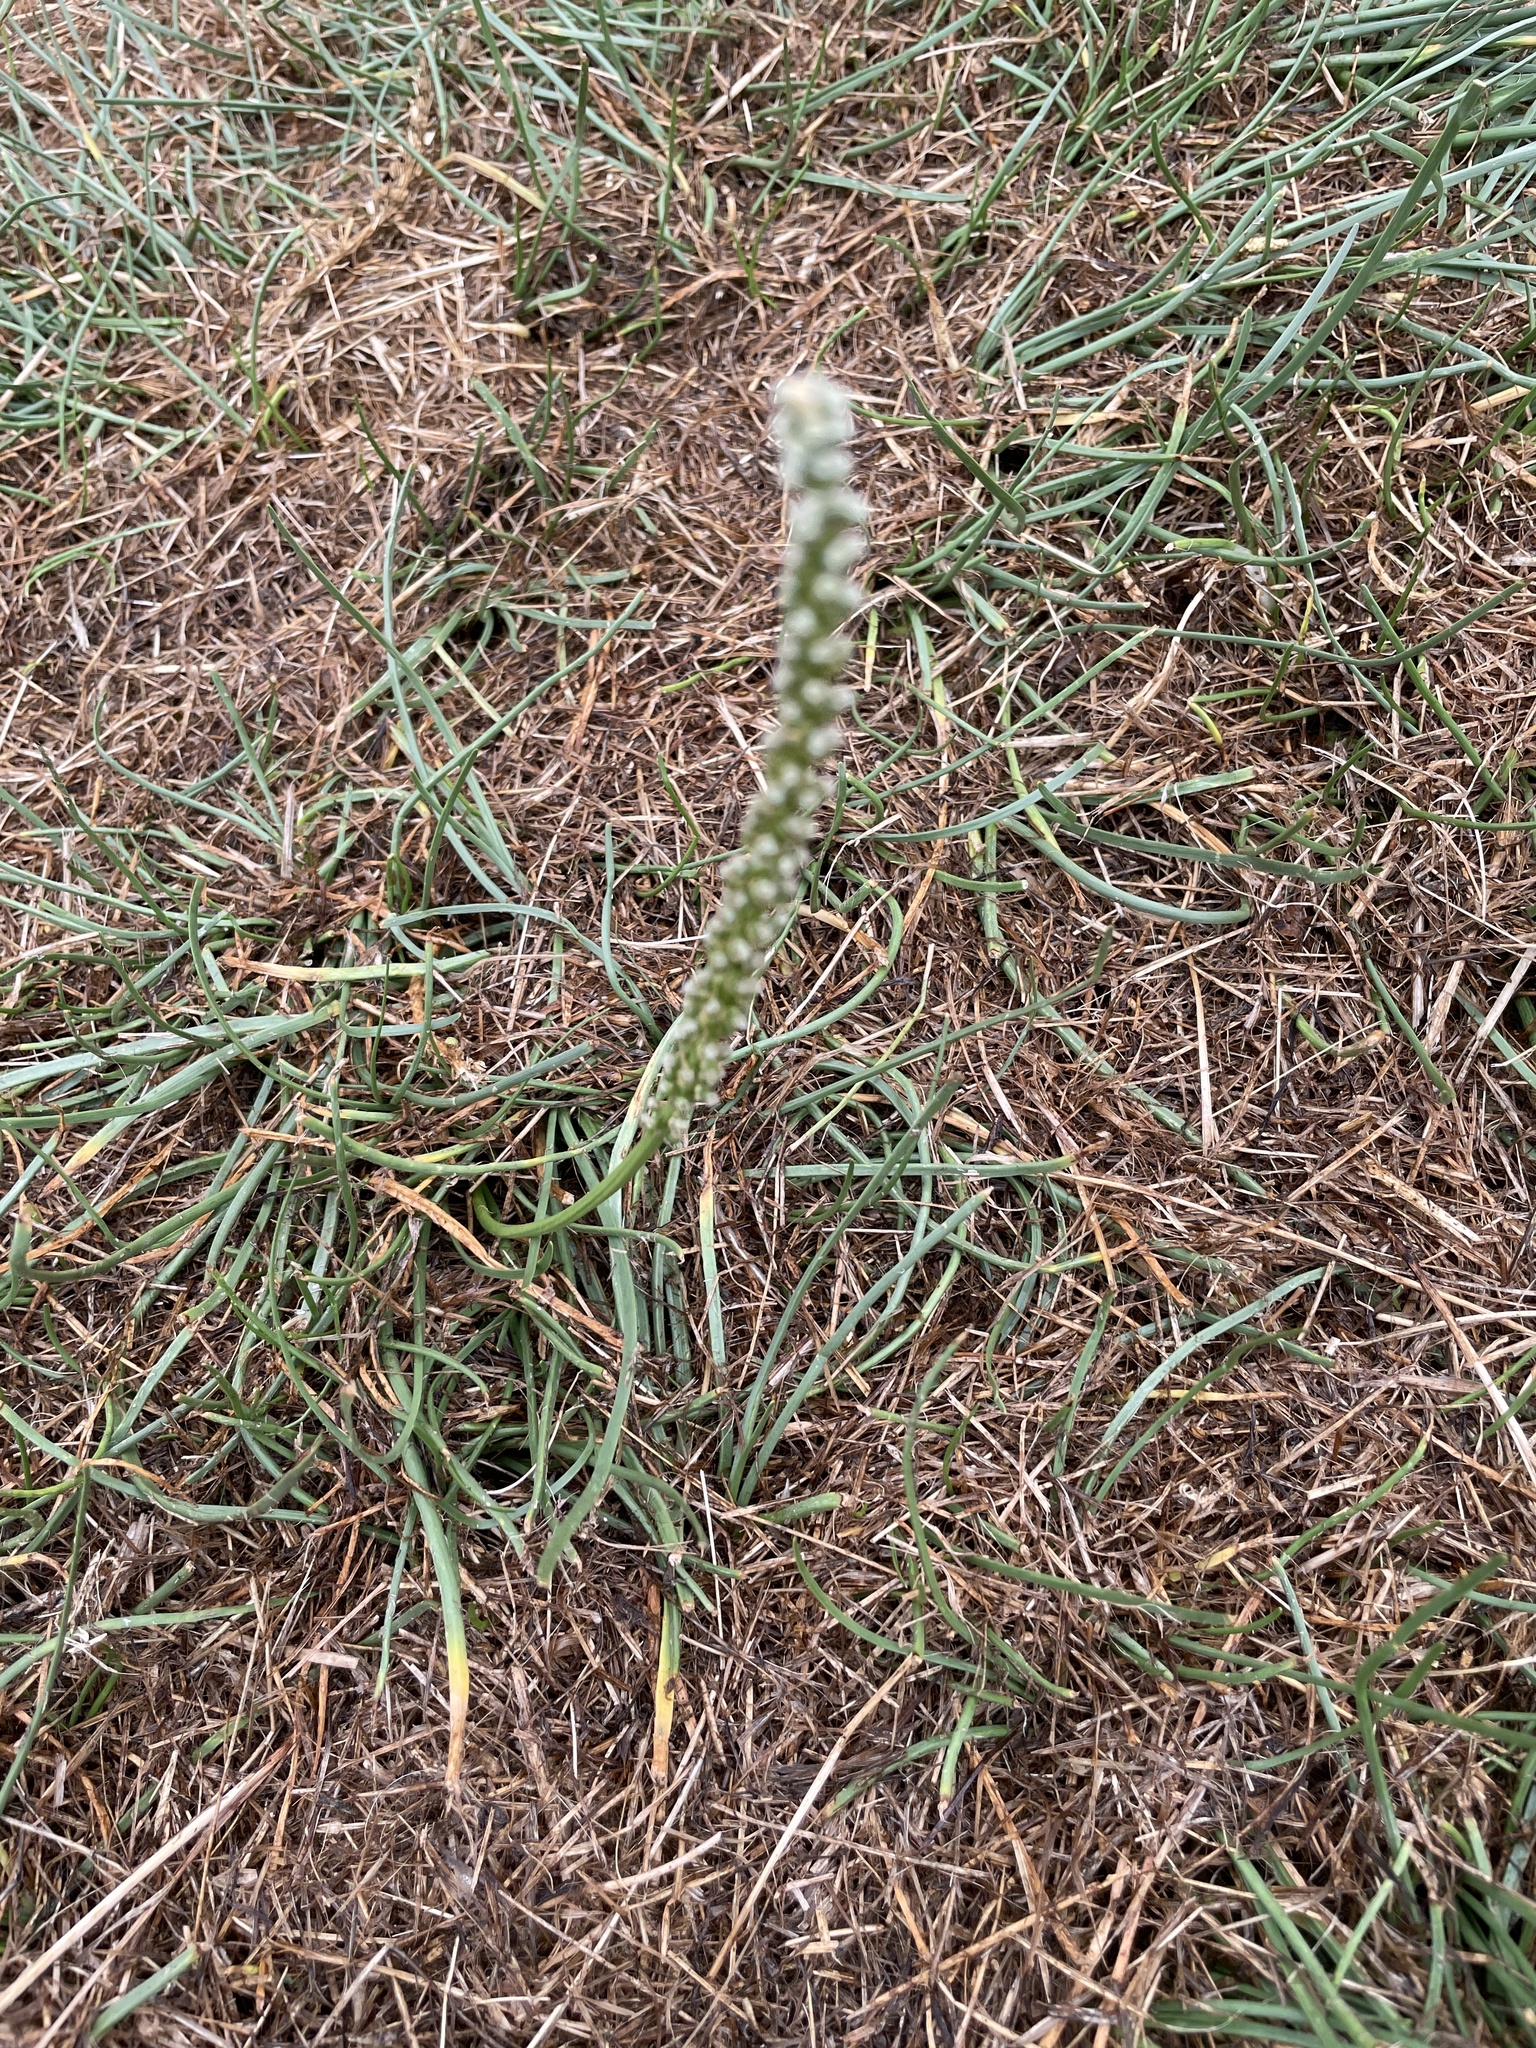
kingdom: Plantae
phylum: Tracheophyta
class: Liliopsida
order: Alismatales
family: Juncaginaceae
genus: Triglochin
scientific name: Triglochin maritima
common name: Sea arrowgrass
